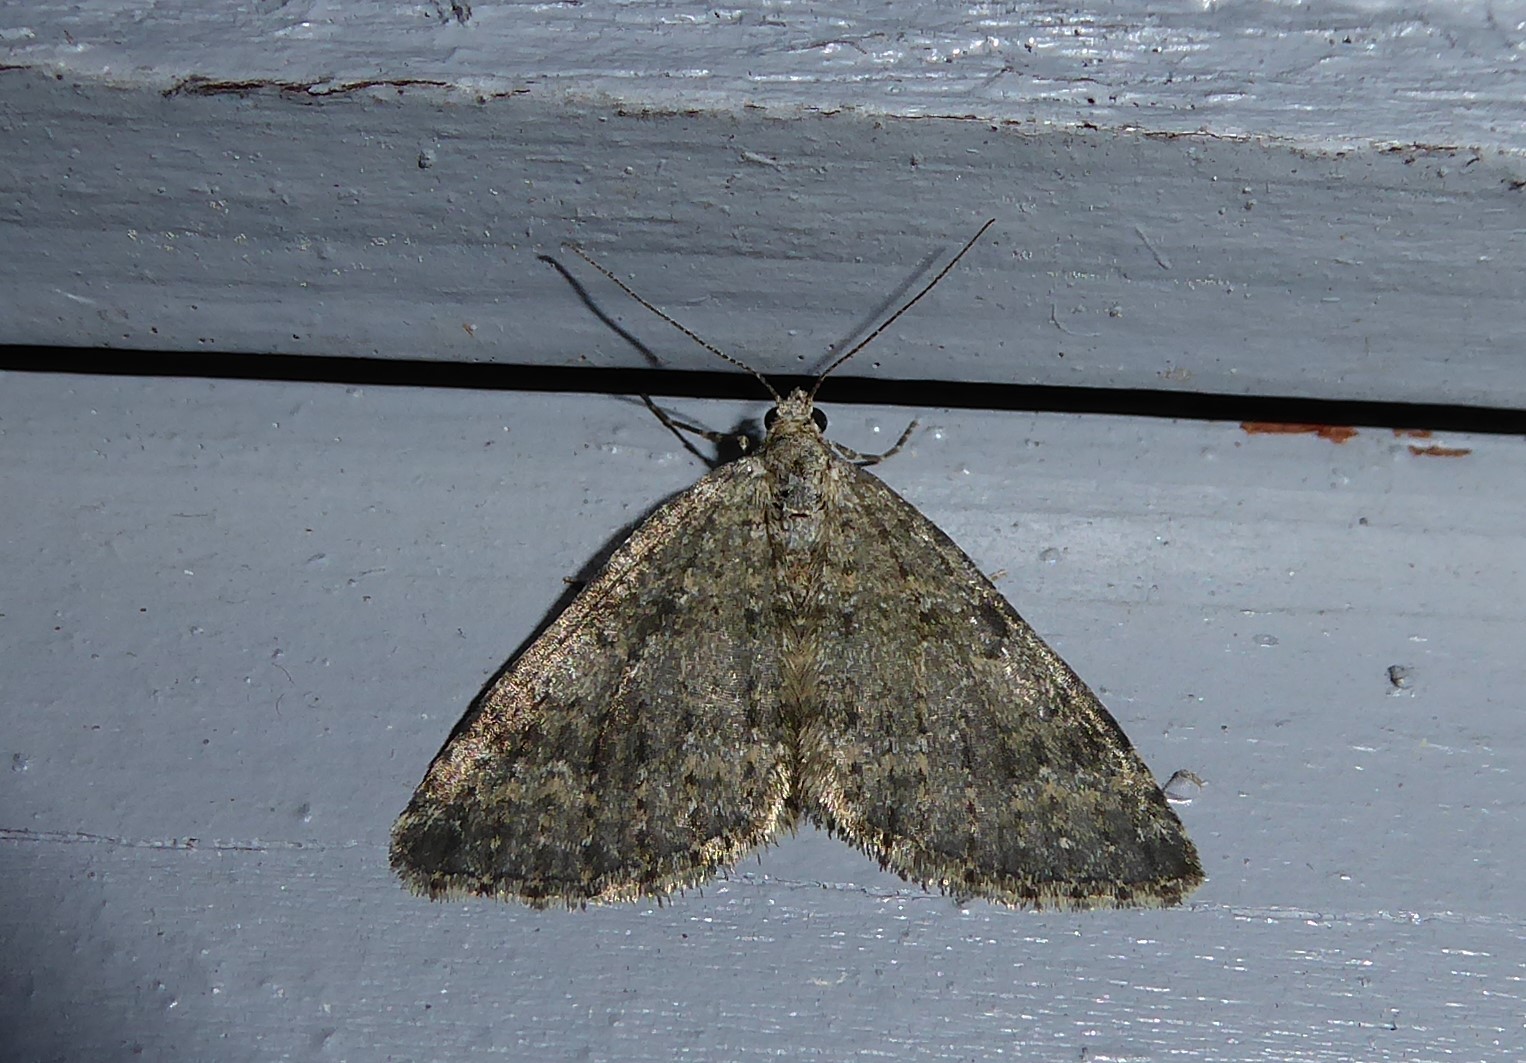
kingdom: Animalia
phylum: Arthropoda
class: Insecta
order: Lepidoptera
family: Geometridae
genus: Helastia
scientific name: Helastia corcularia
